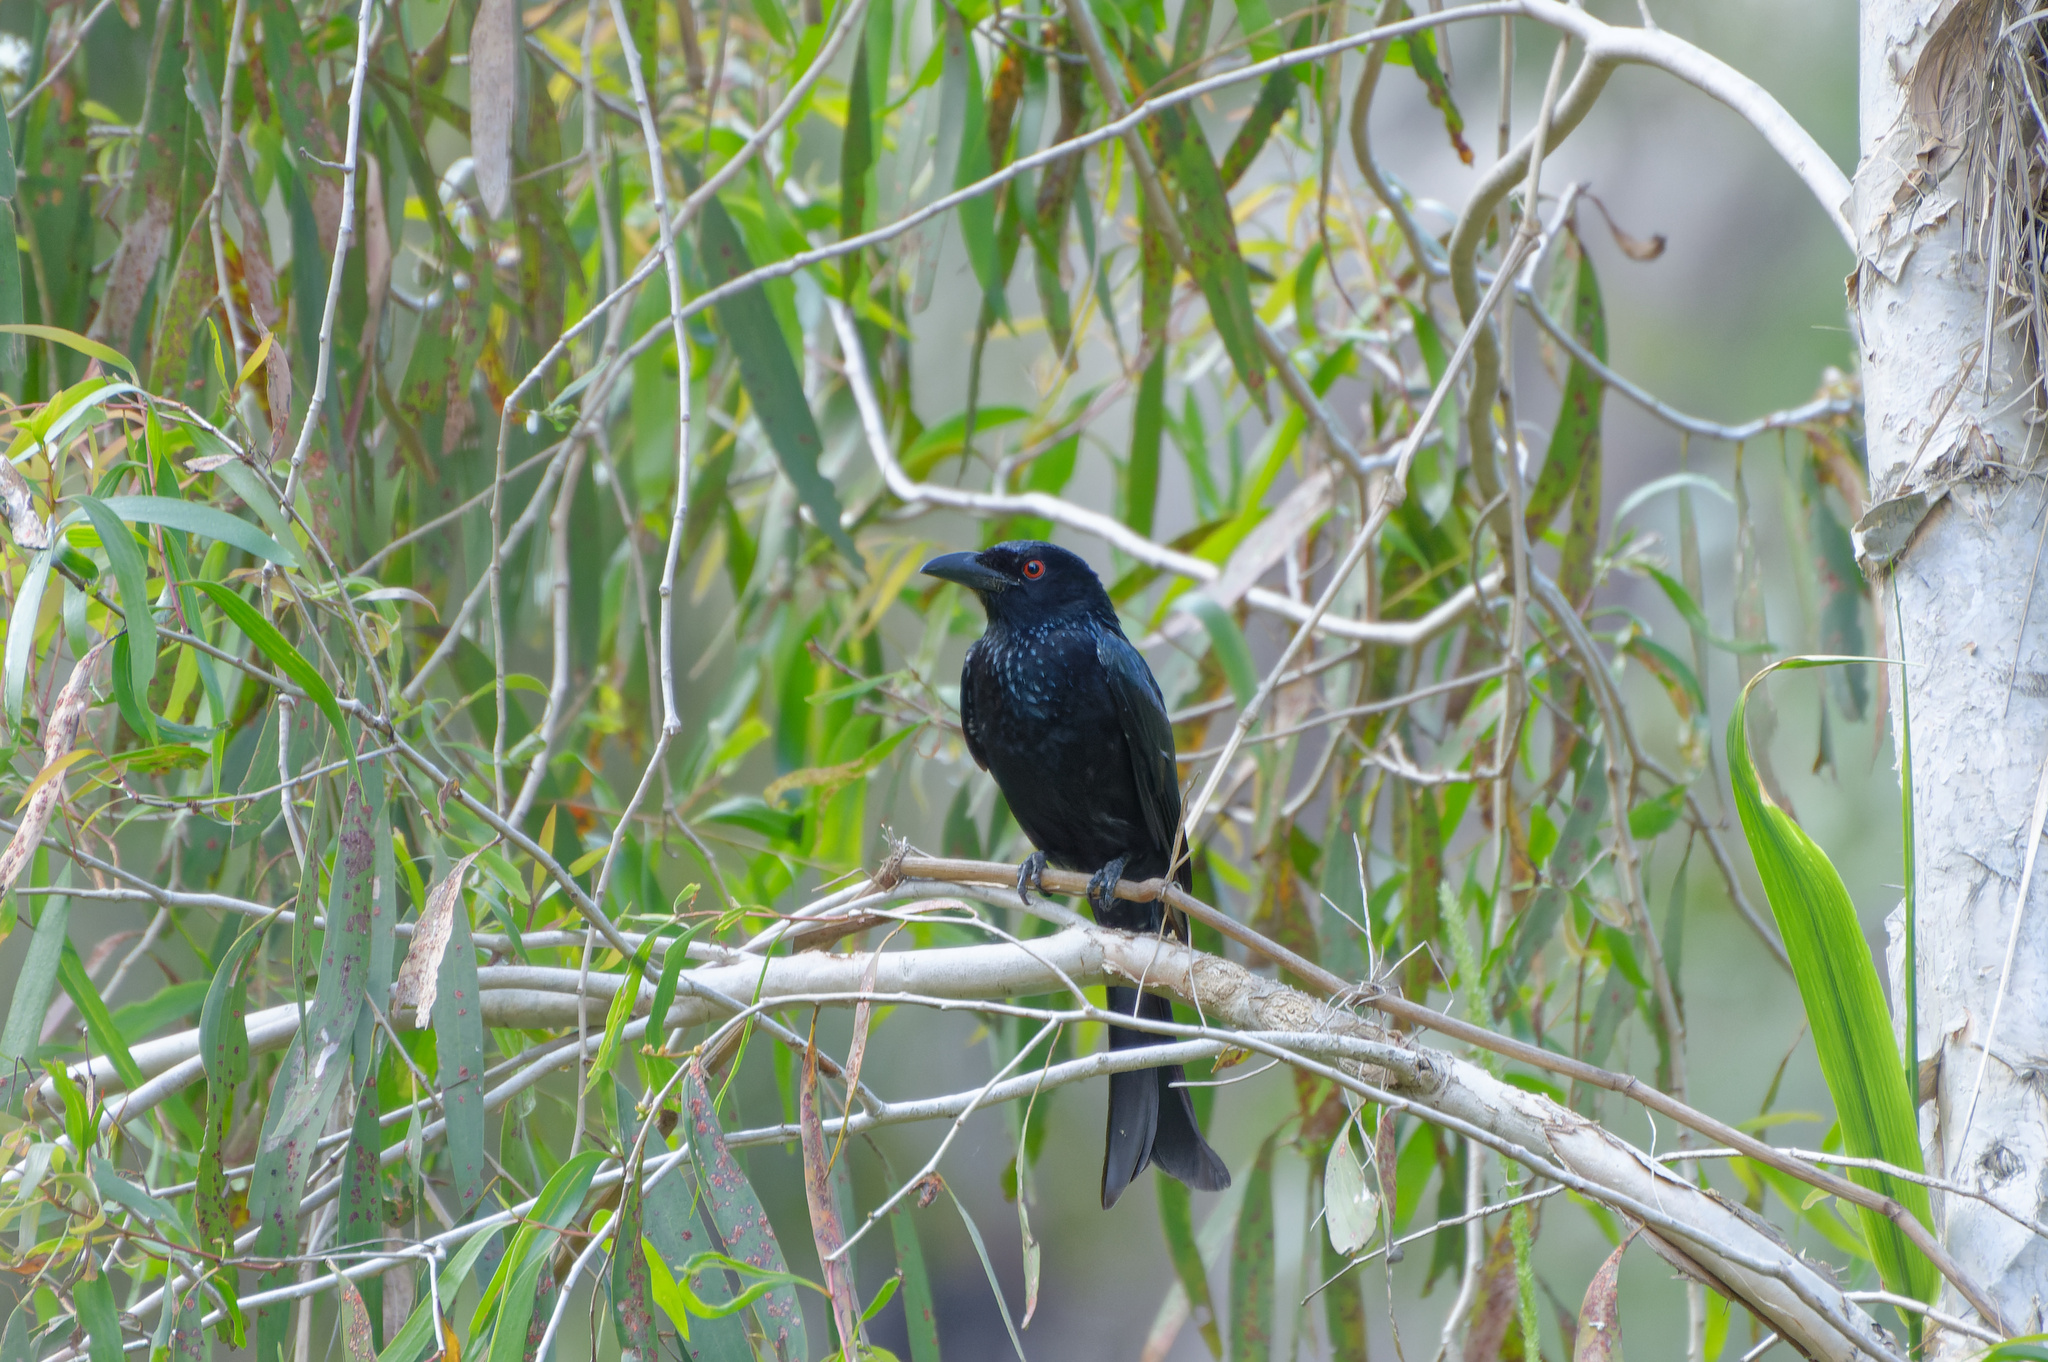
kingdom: Animalia
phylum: Chordata
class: Aves
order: Passeriformes
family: Dicruridae
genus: Dicrurus
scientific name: Dicrurus bracteatus
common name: Spangled drongo
